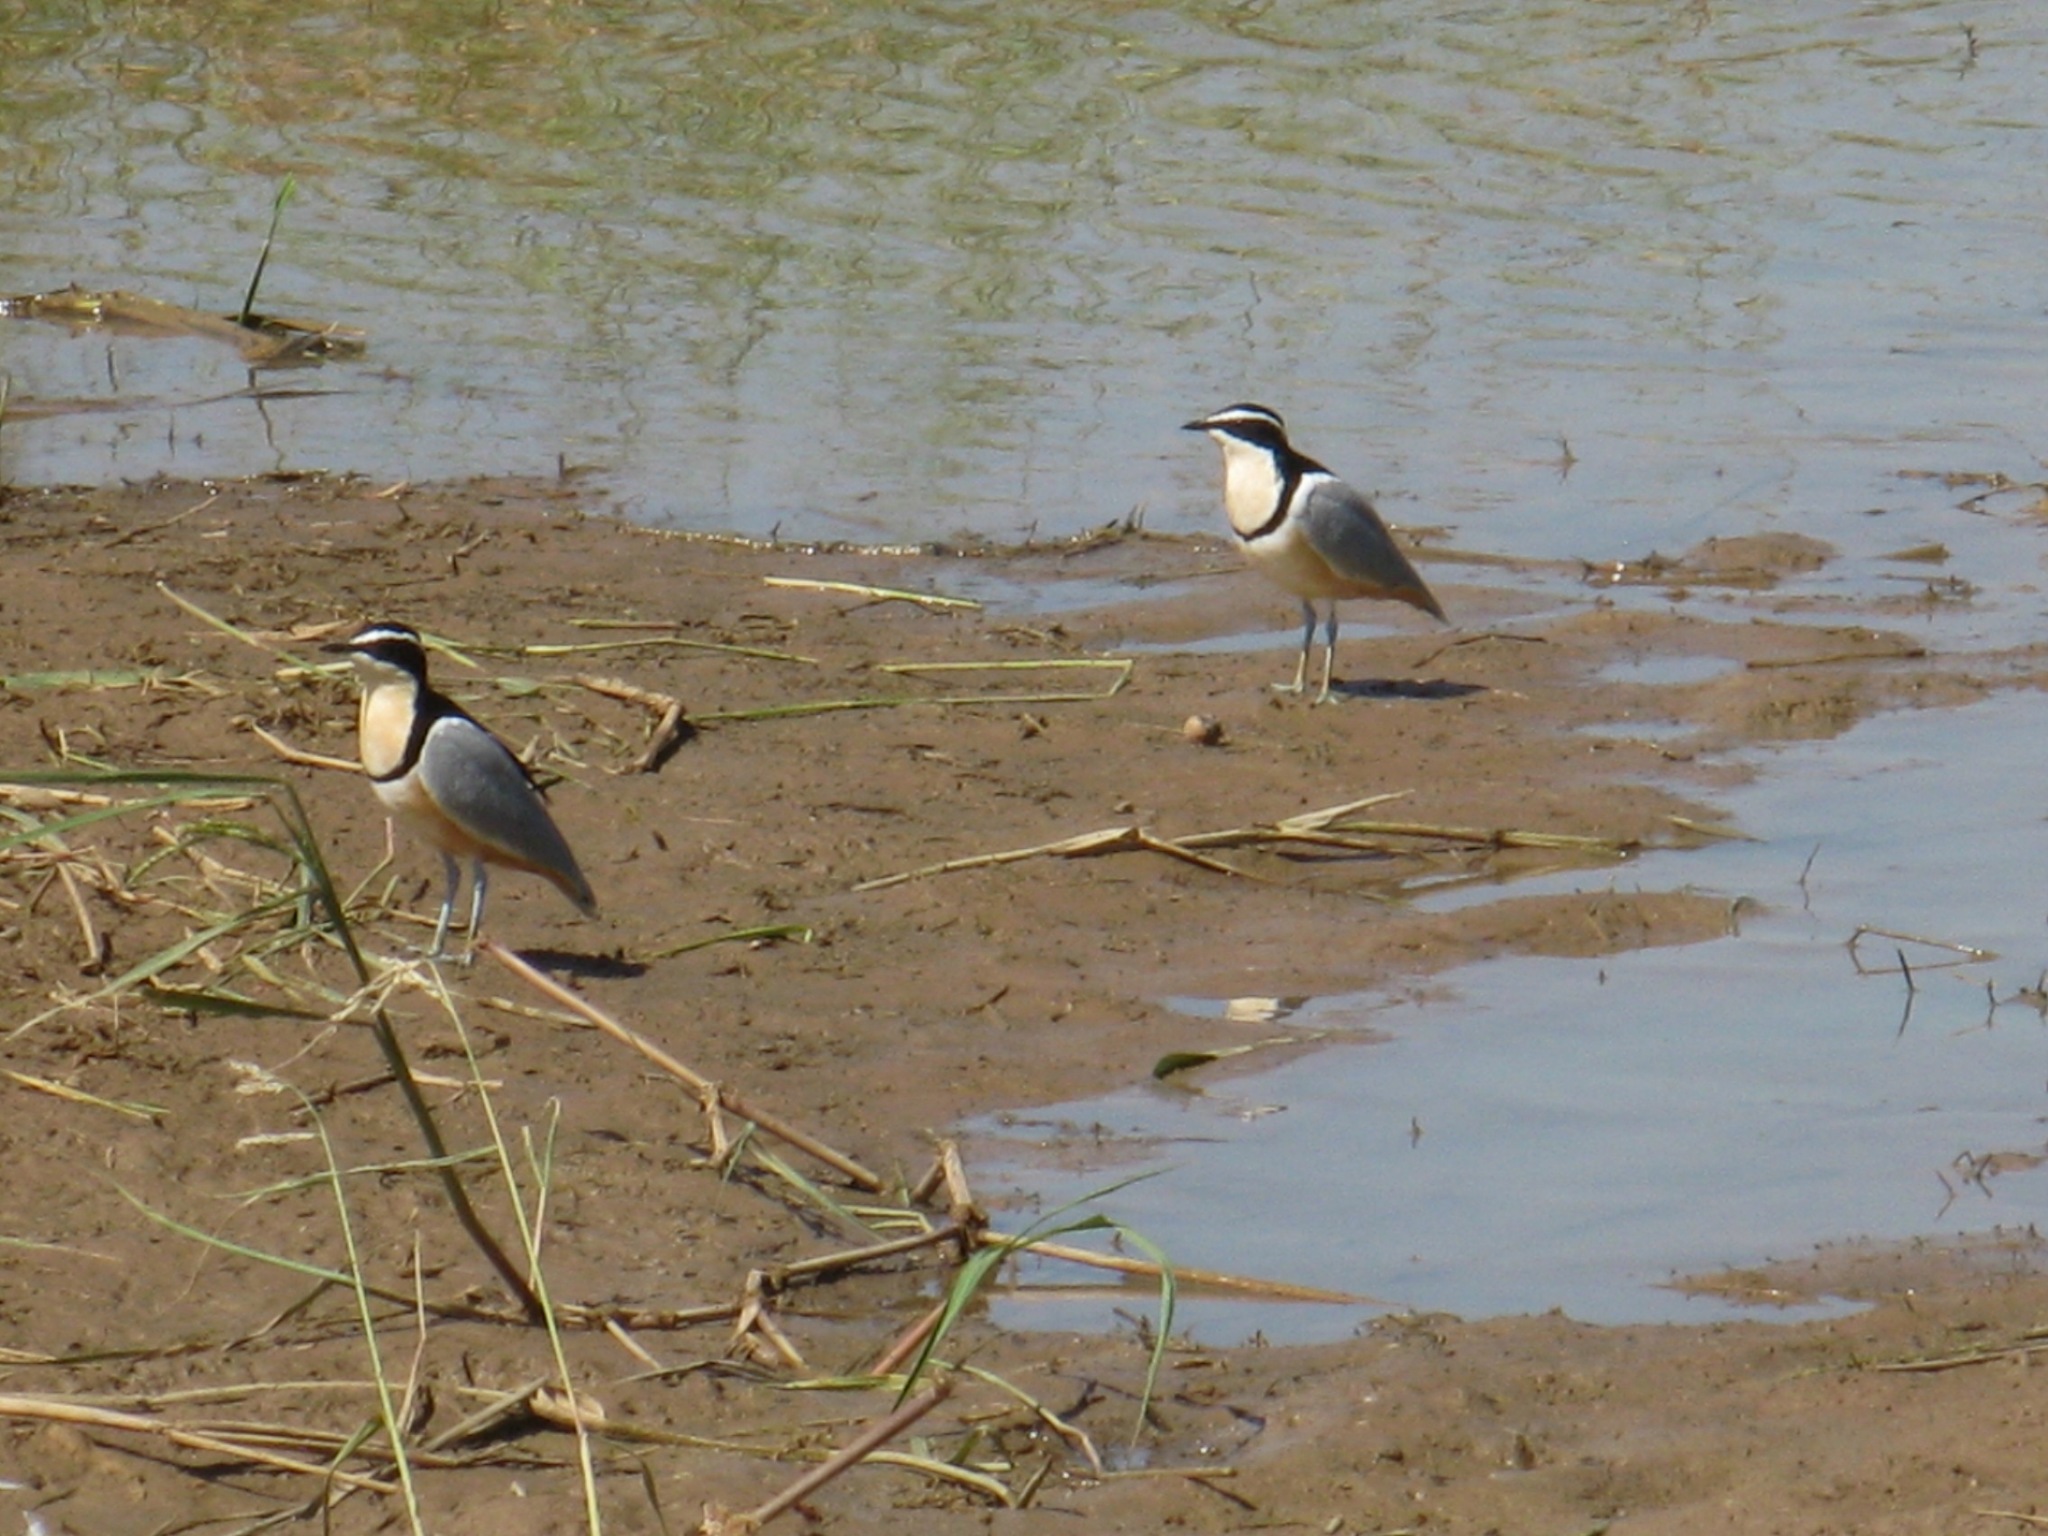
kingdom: Animalia
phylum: Chordata
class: Aves
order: Charadriiformes
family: Pluvianidae
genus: Pluvianus
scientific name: Pluvianus aegyptius
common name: Egyptian plover
